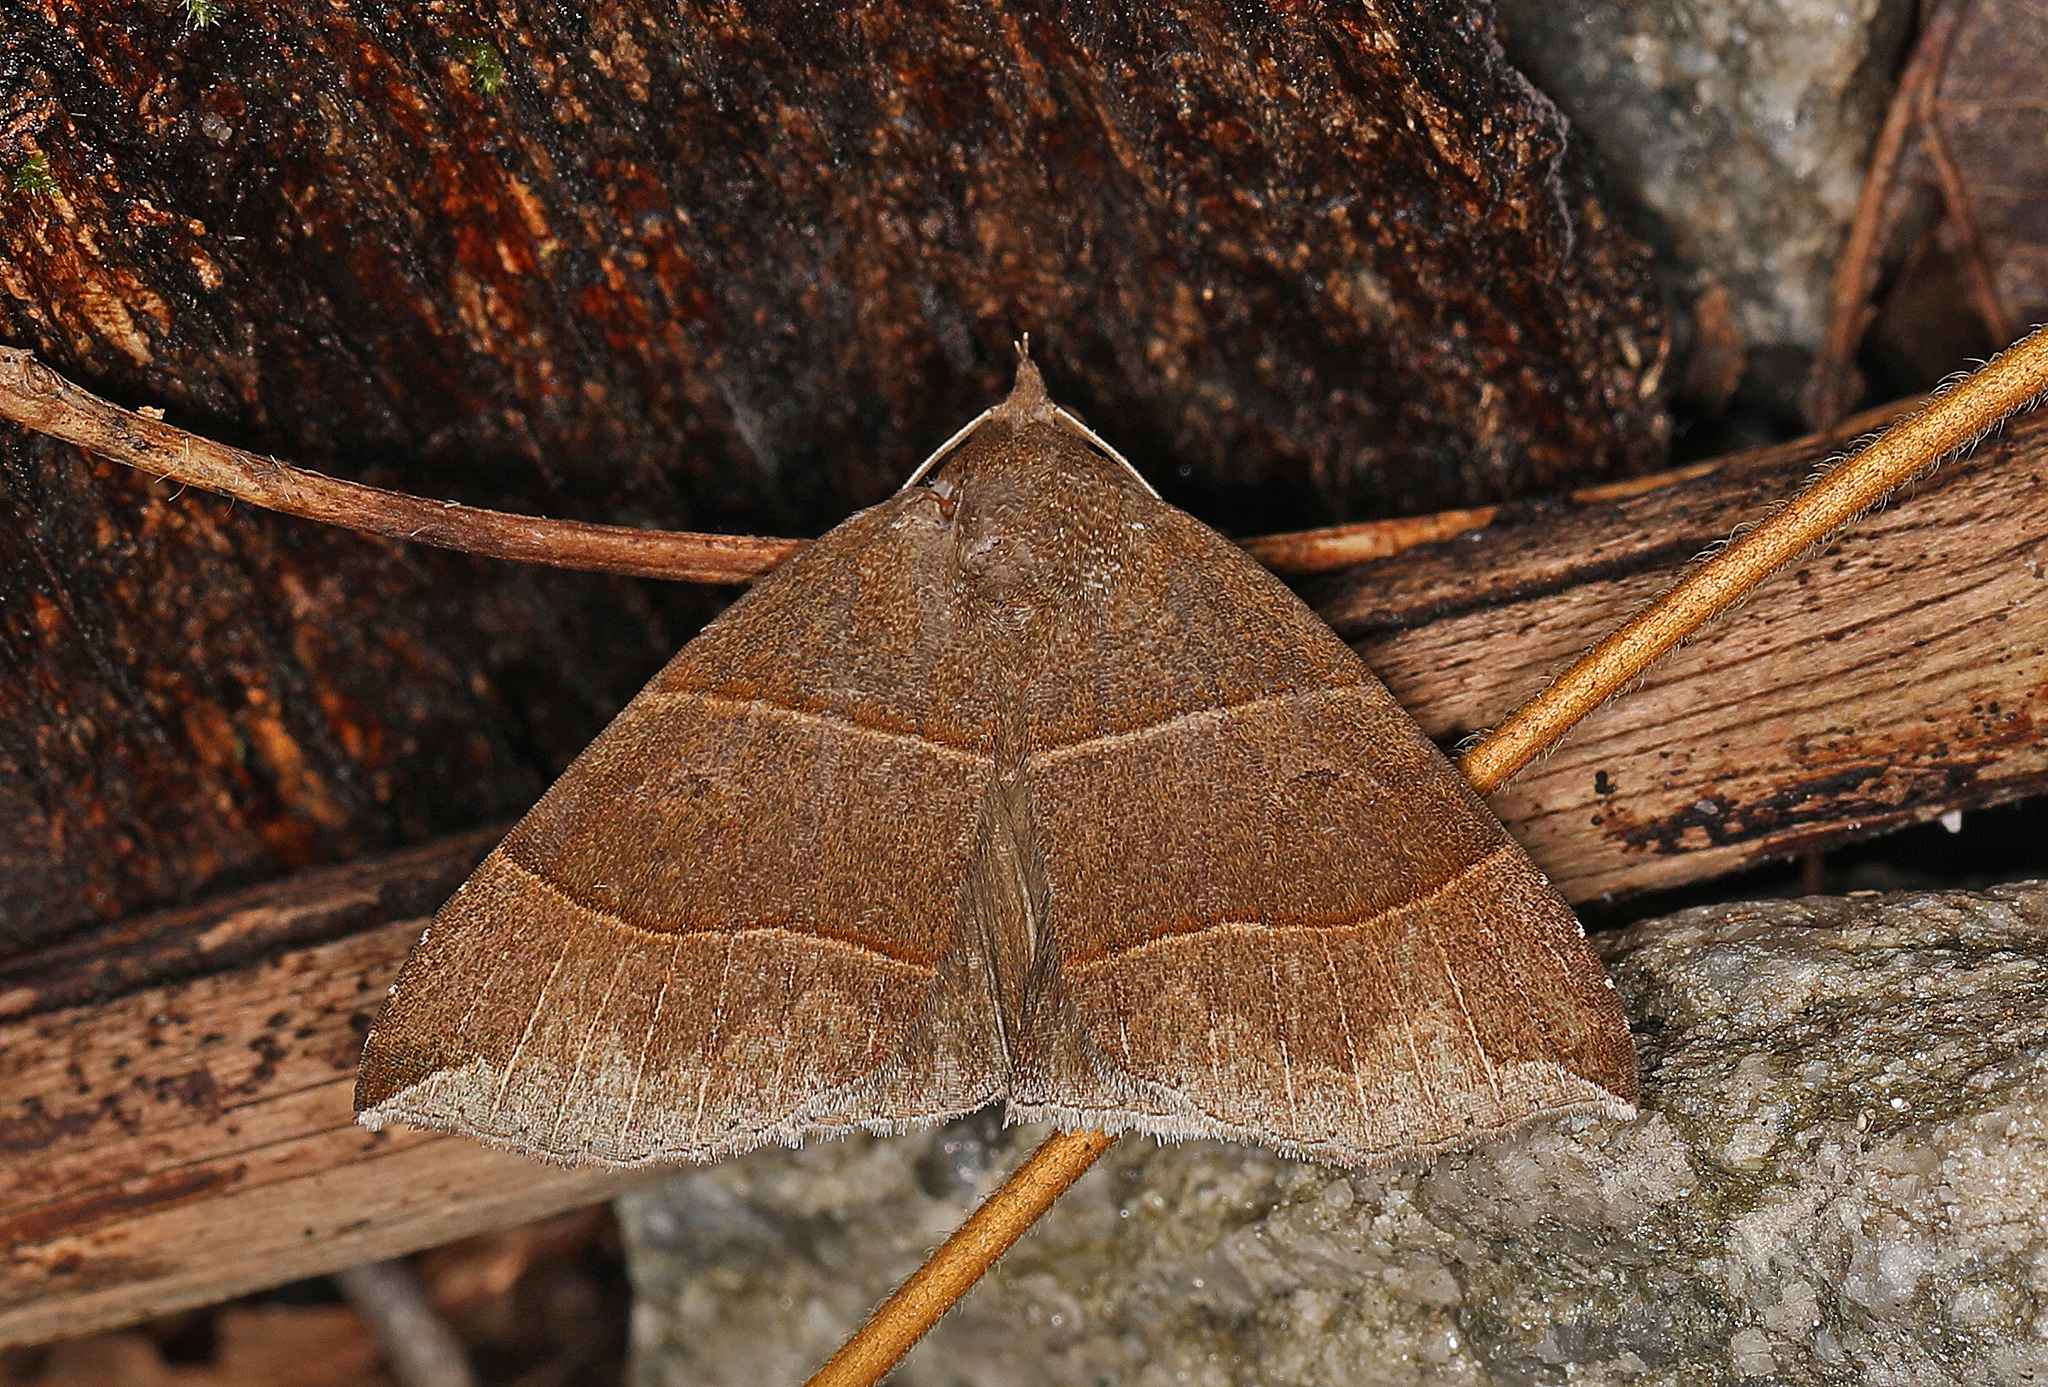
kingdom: Animalia
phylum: Arthropoda
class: Insecta
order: Lepidoptera
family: Erebidae
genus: Parallelia
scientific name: Parallelia bistriaris
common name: Maple looper moth
